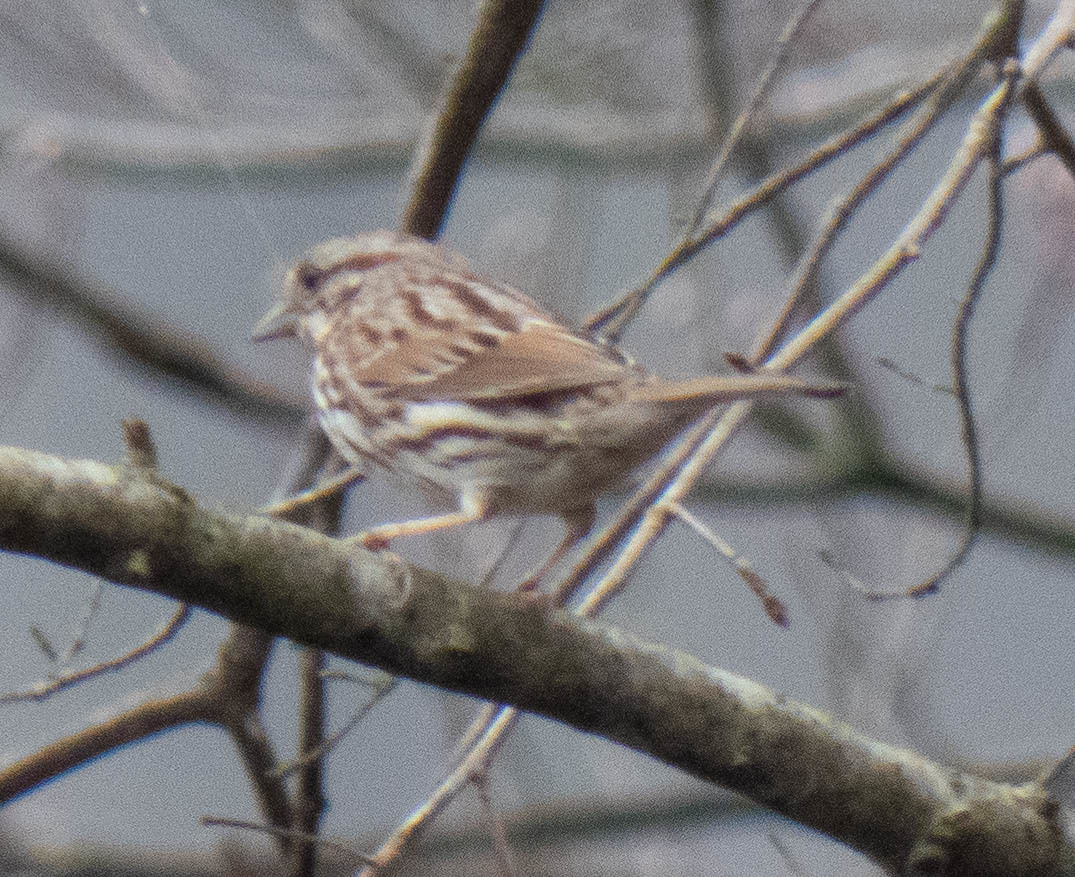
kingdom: Animalia
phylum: Chordata
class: Aves
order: Passeriformes
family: Passerellidae
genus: Melospiza
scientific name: Melospiza melodia
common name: Song sparrow
